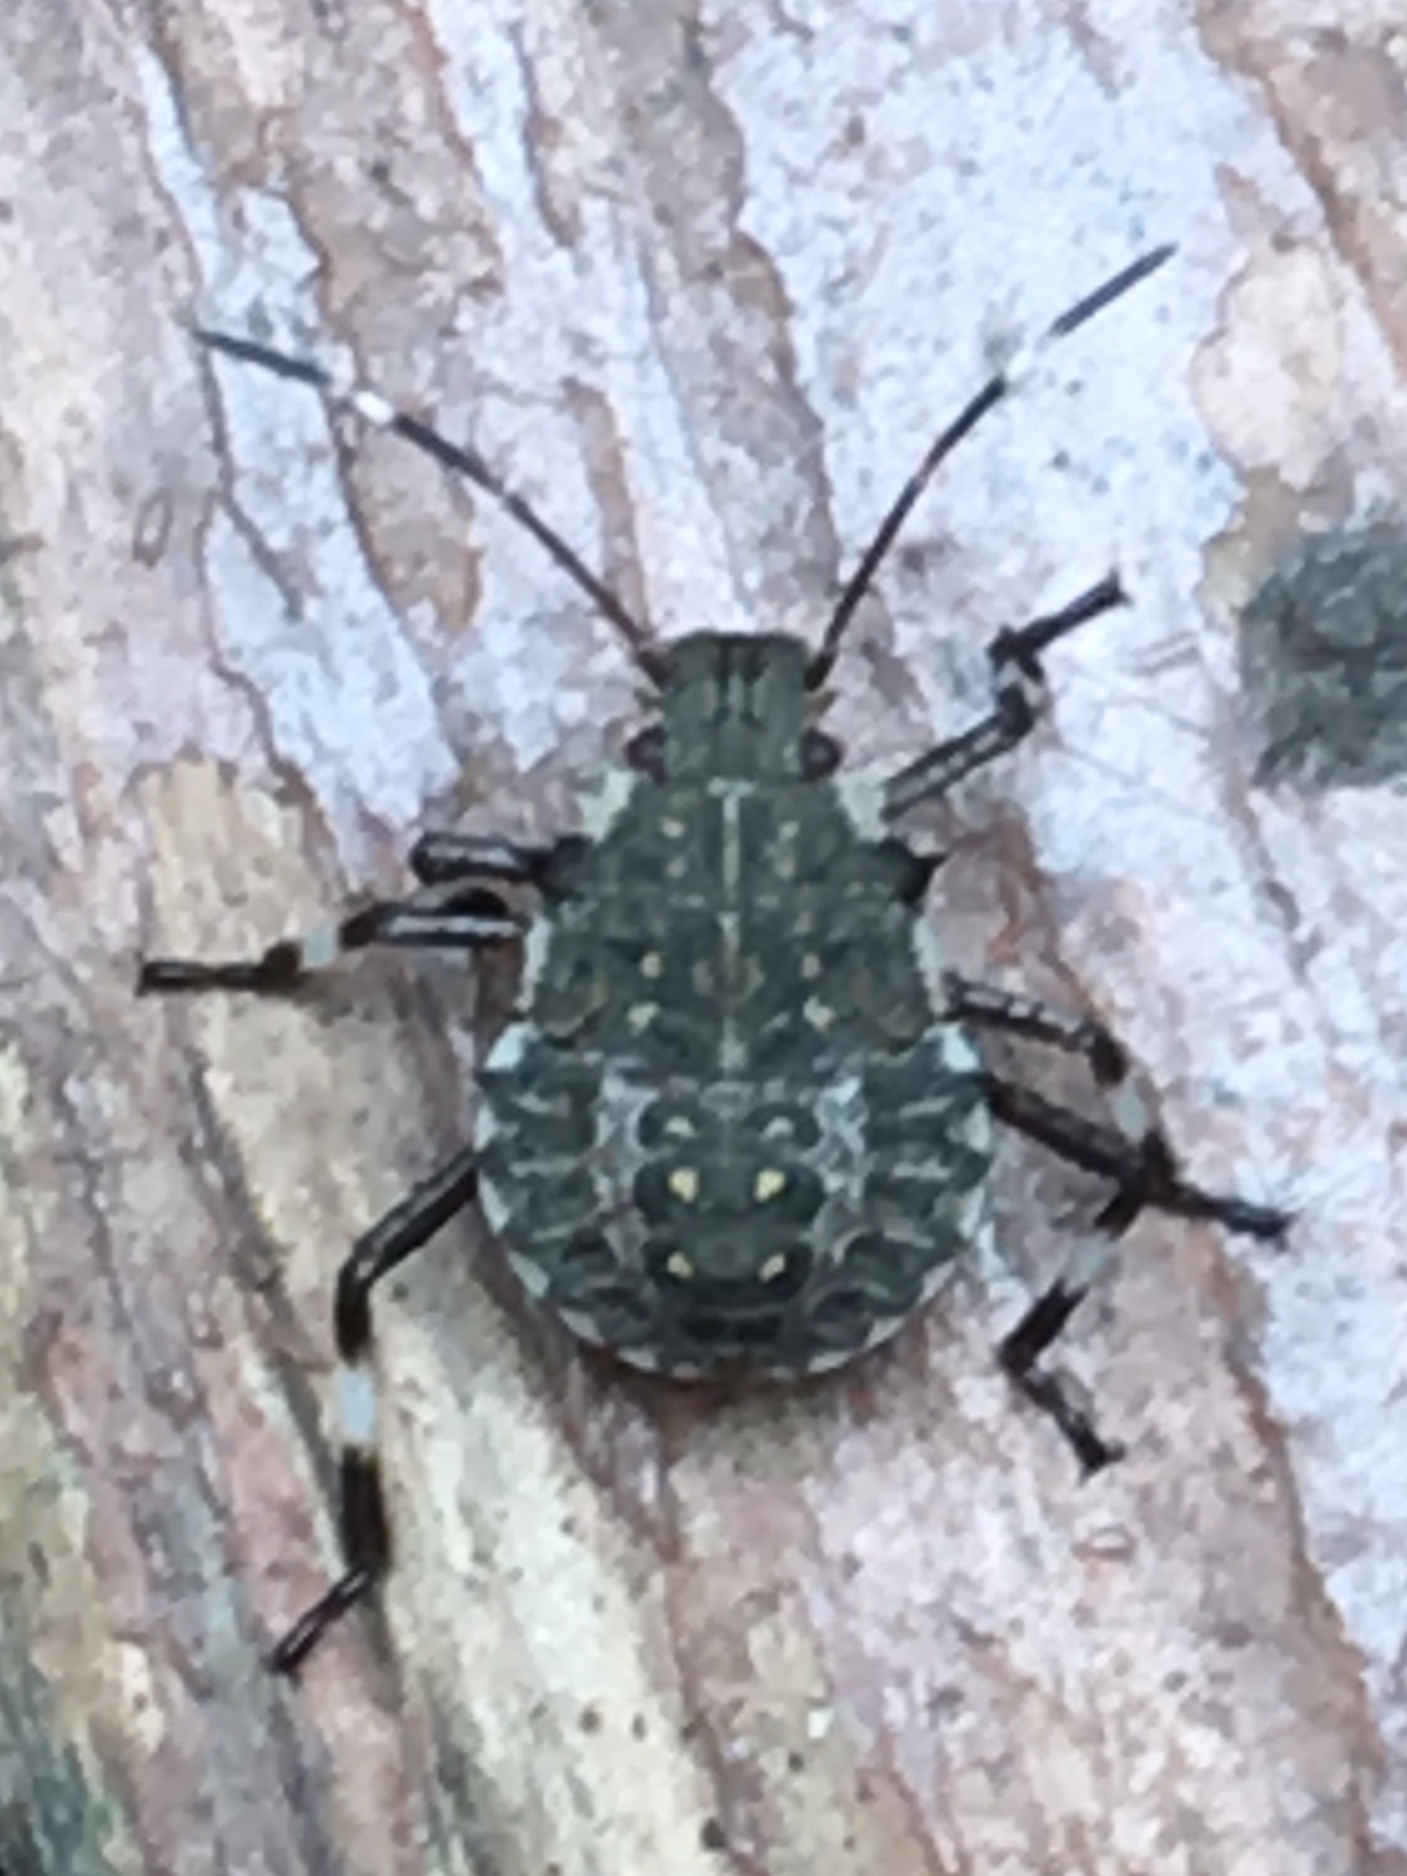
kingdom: Animalia
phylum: Arthropoda
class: Insecta
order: Hemiptera
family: Pentatomidae
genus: Halyomorpha
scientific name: Halyomorpha halys
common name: Brown marmorated stink bug
